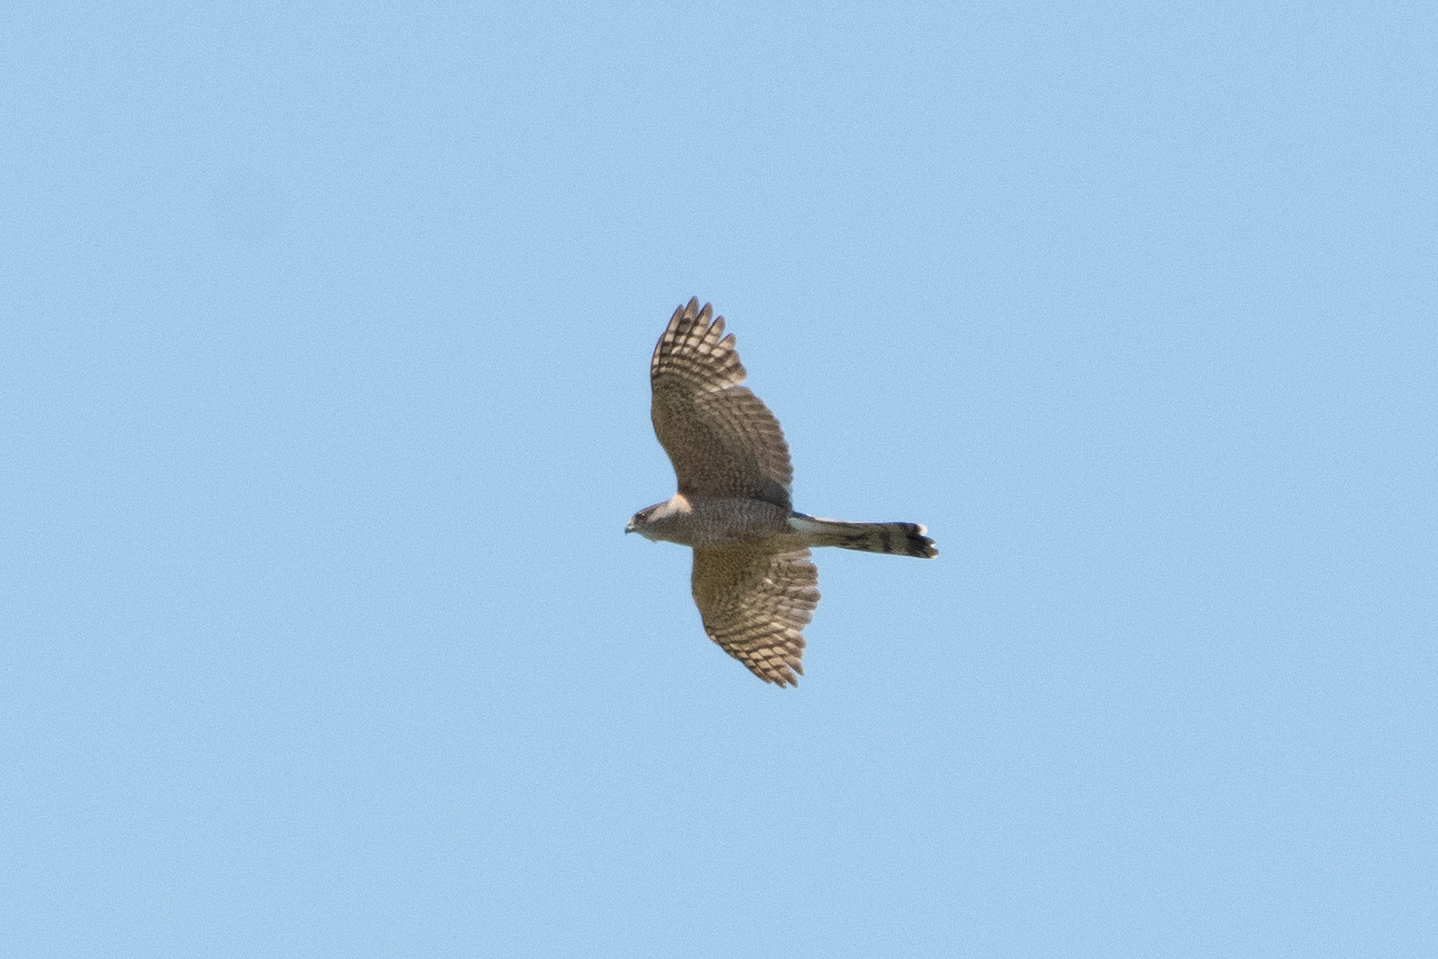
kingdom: Animalia
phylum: Chordata
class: Aves
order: Accipitriformes
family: Accipitridae
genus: Accipiter
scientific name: Accipiter cooperii
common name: Cooper's hawk
